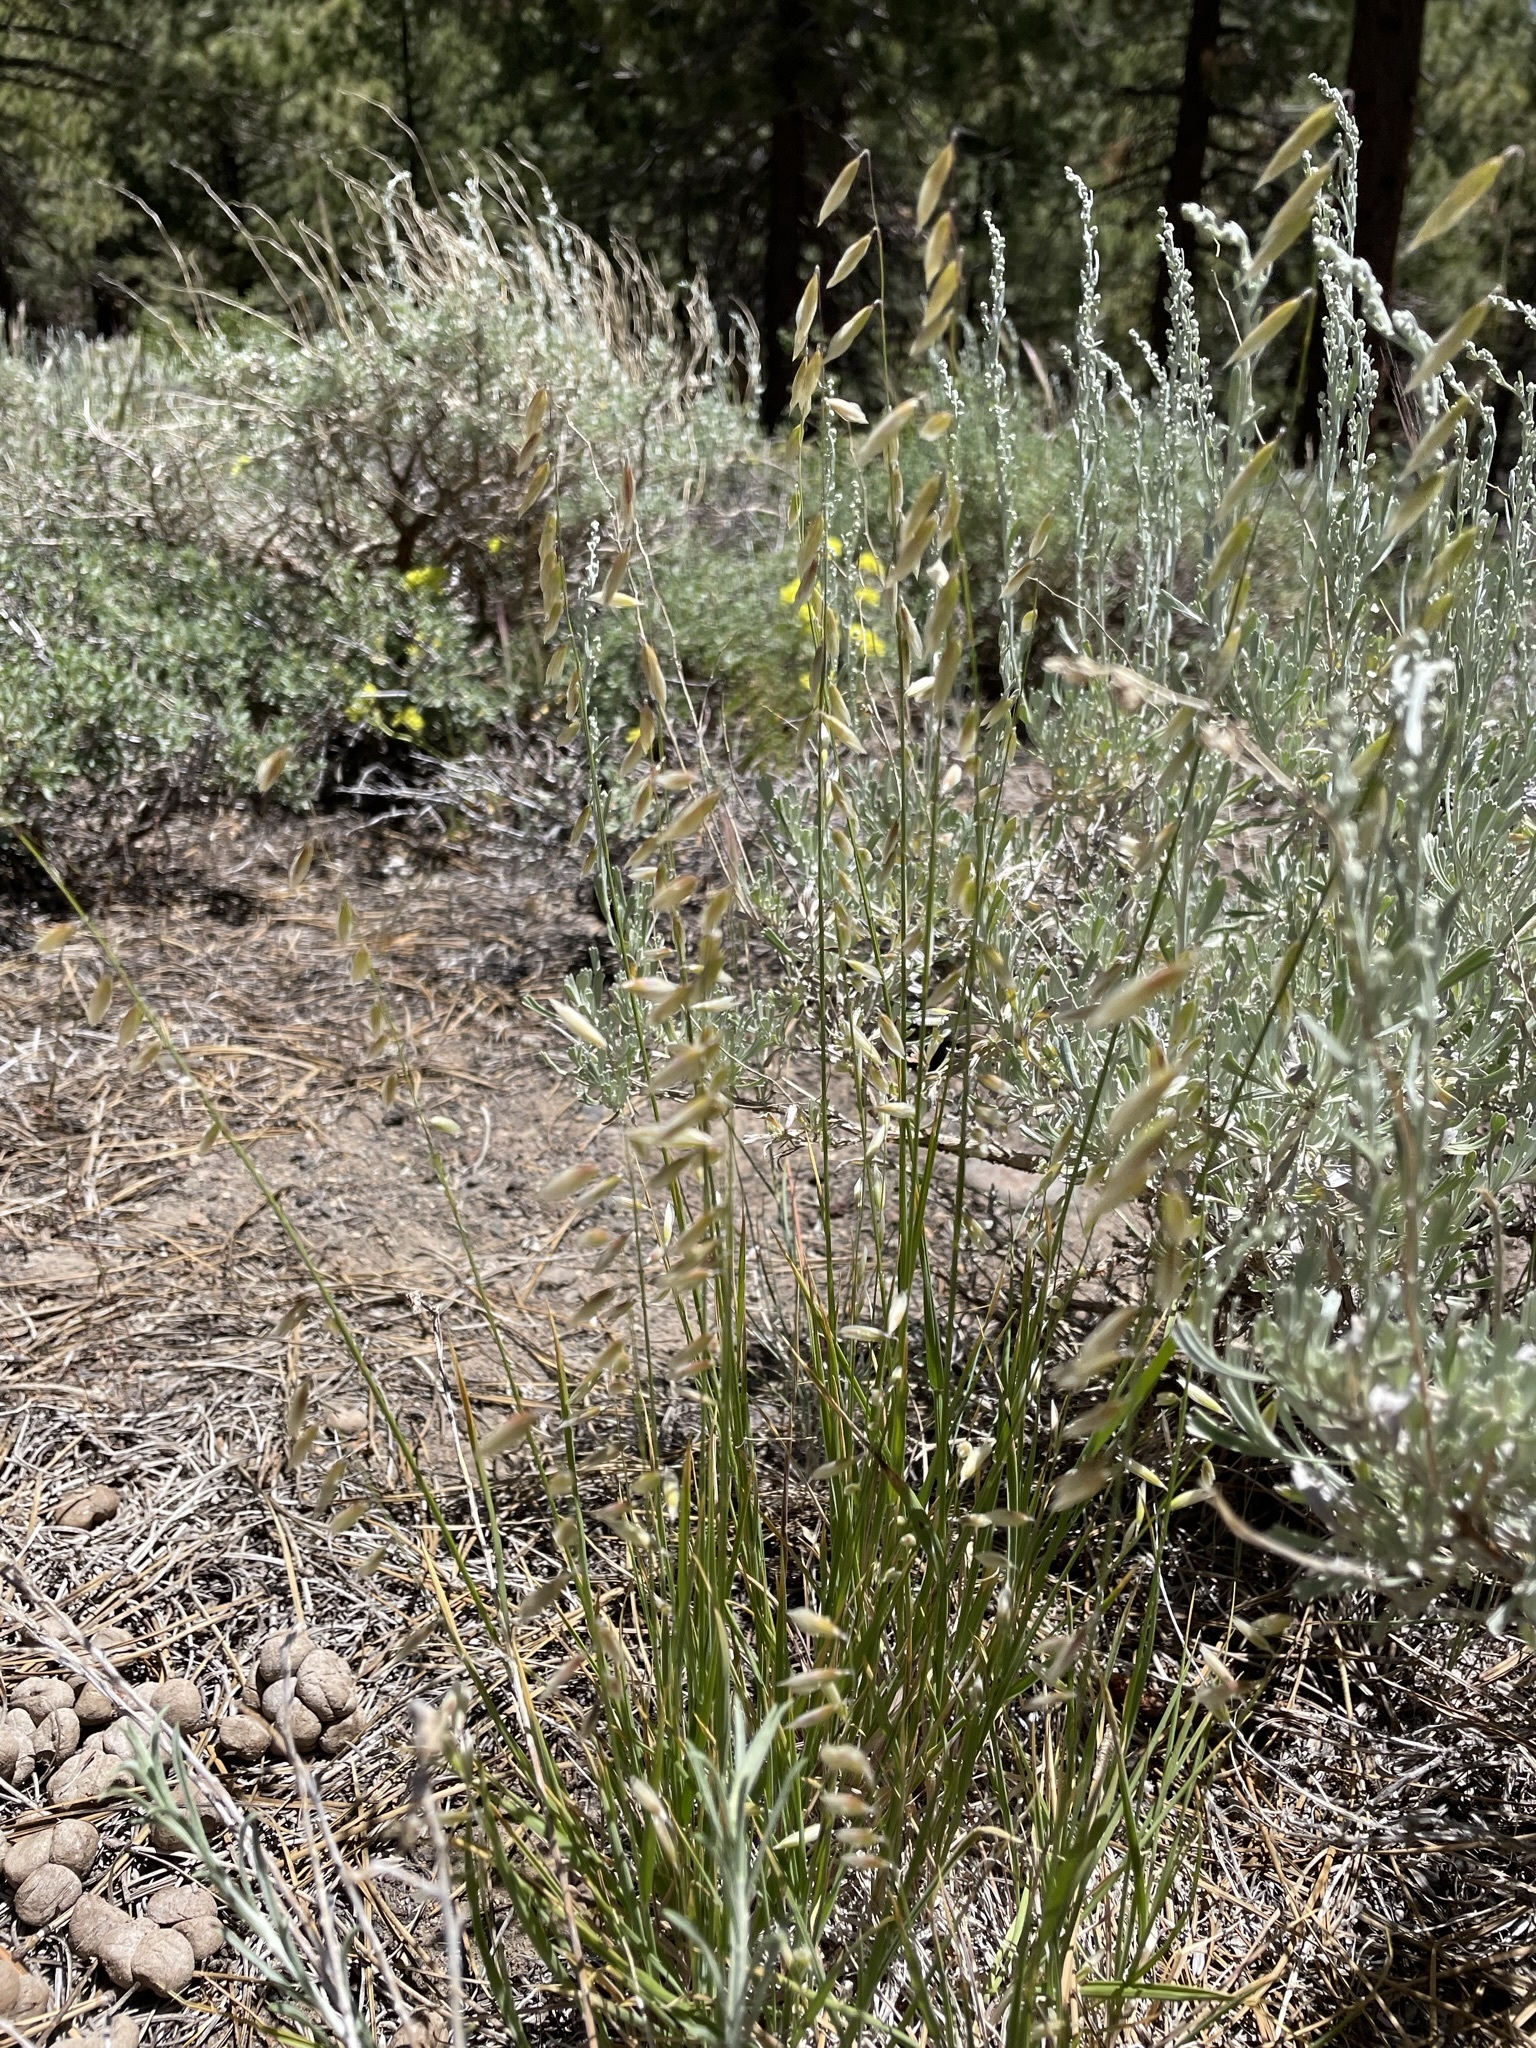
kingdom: Plantae
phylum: Tracheophyta
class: Liliopsida
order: Poales
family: Poaceae
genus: Melica
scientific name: Melica stricta
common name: Rock melic
